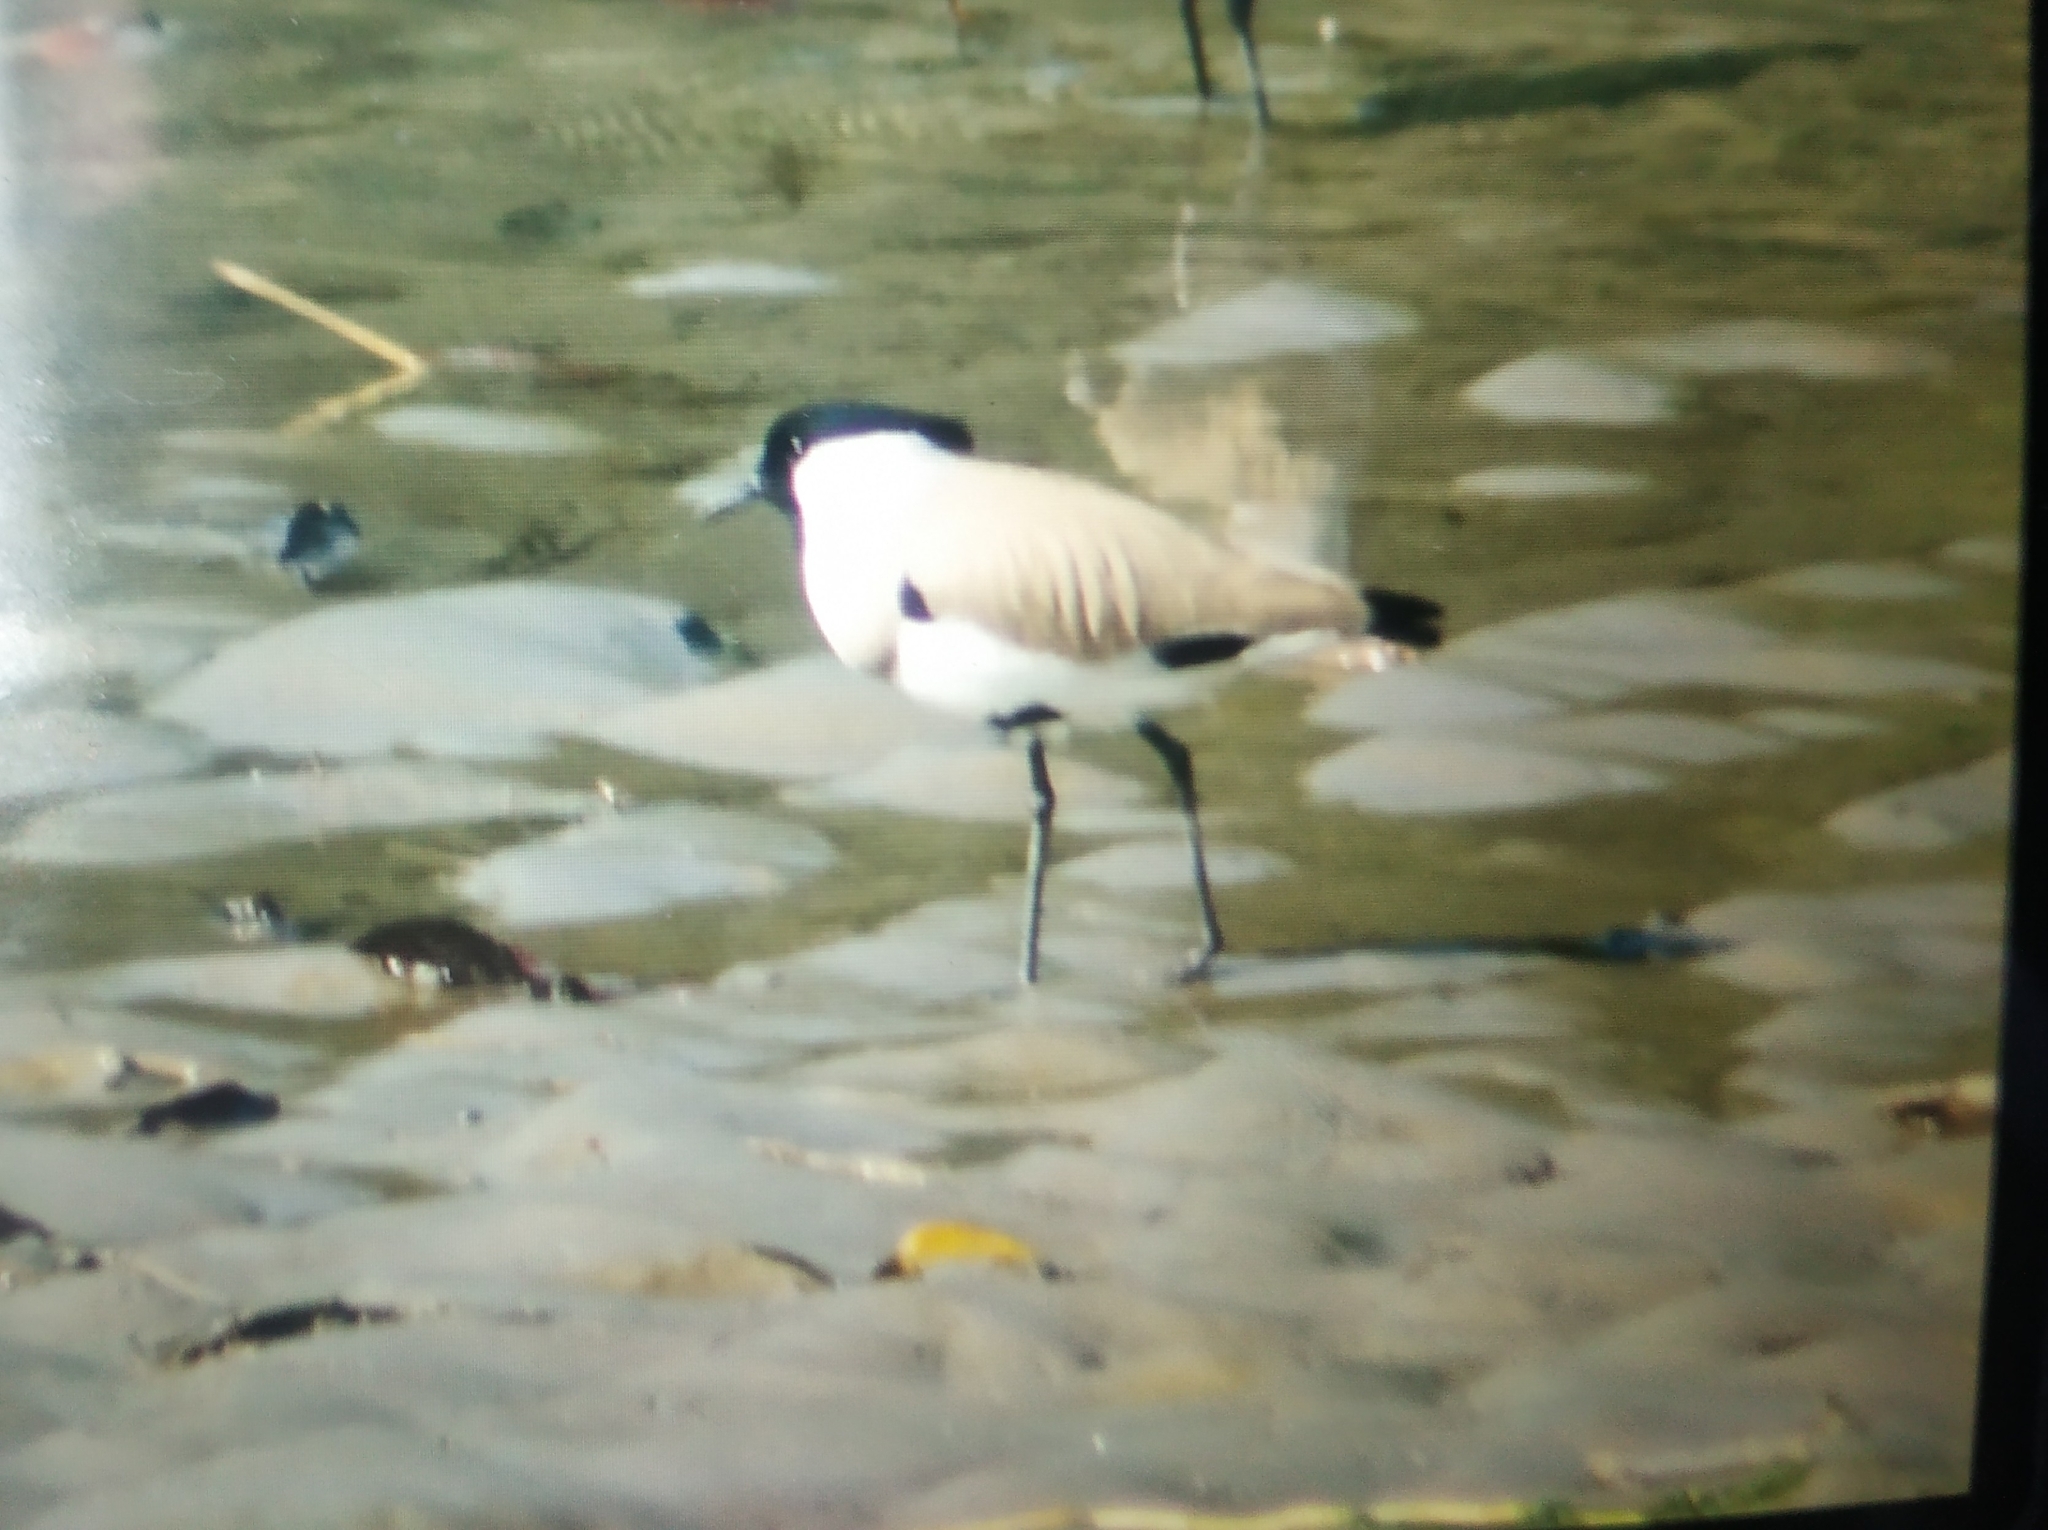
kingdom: Animalia
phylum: Chordata
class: Aves
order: Charadriiformes
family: Charadriidae
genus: Vanellus
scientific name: Vanellus duvaucelii
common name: River lapwing
